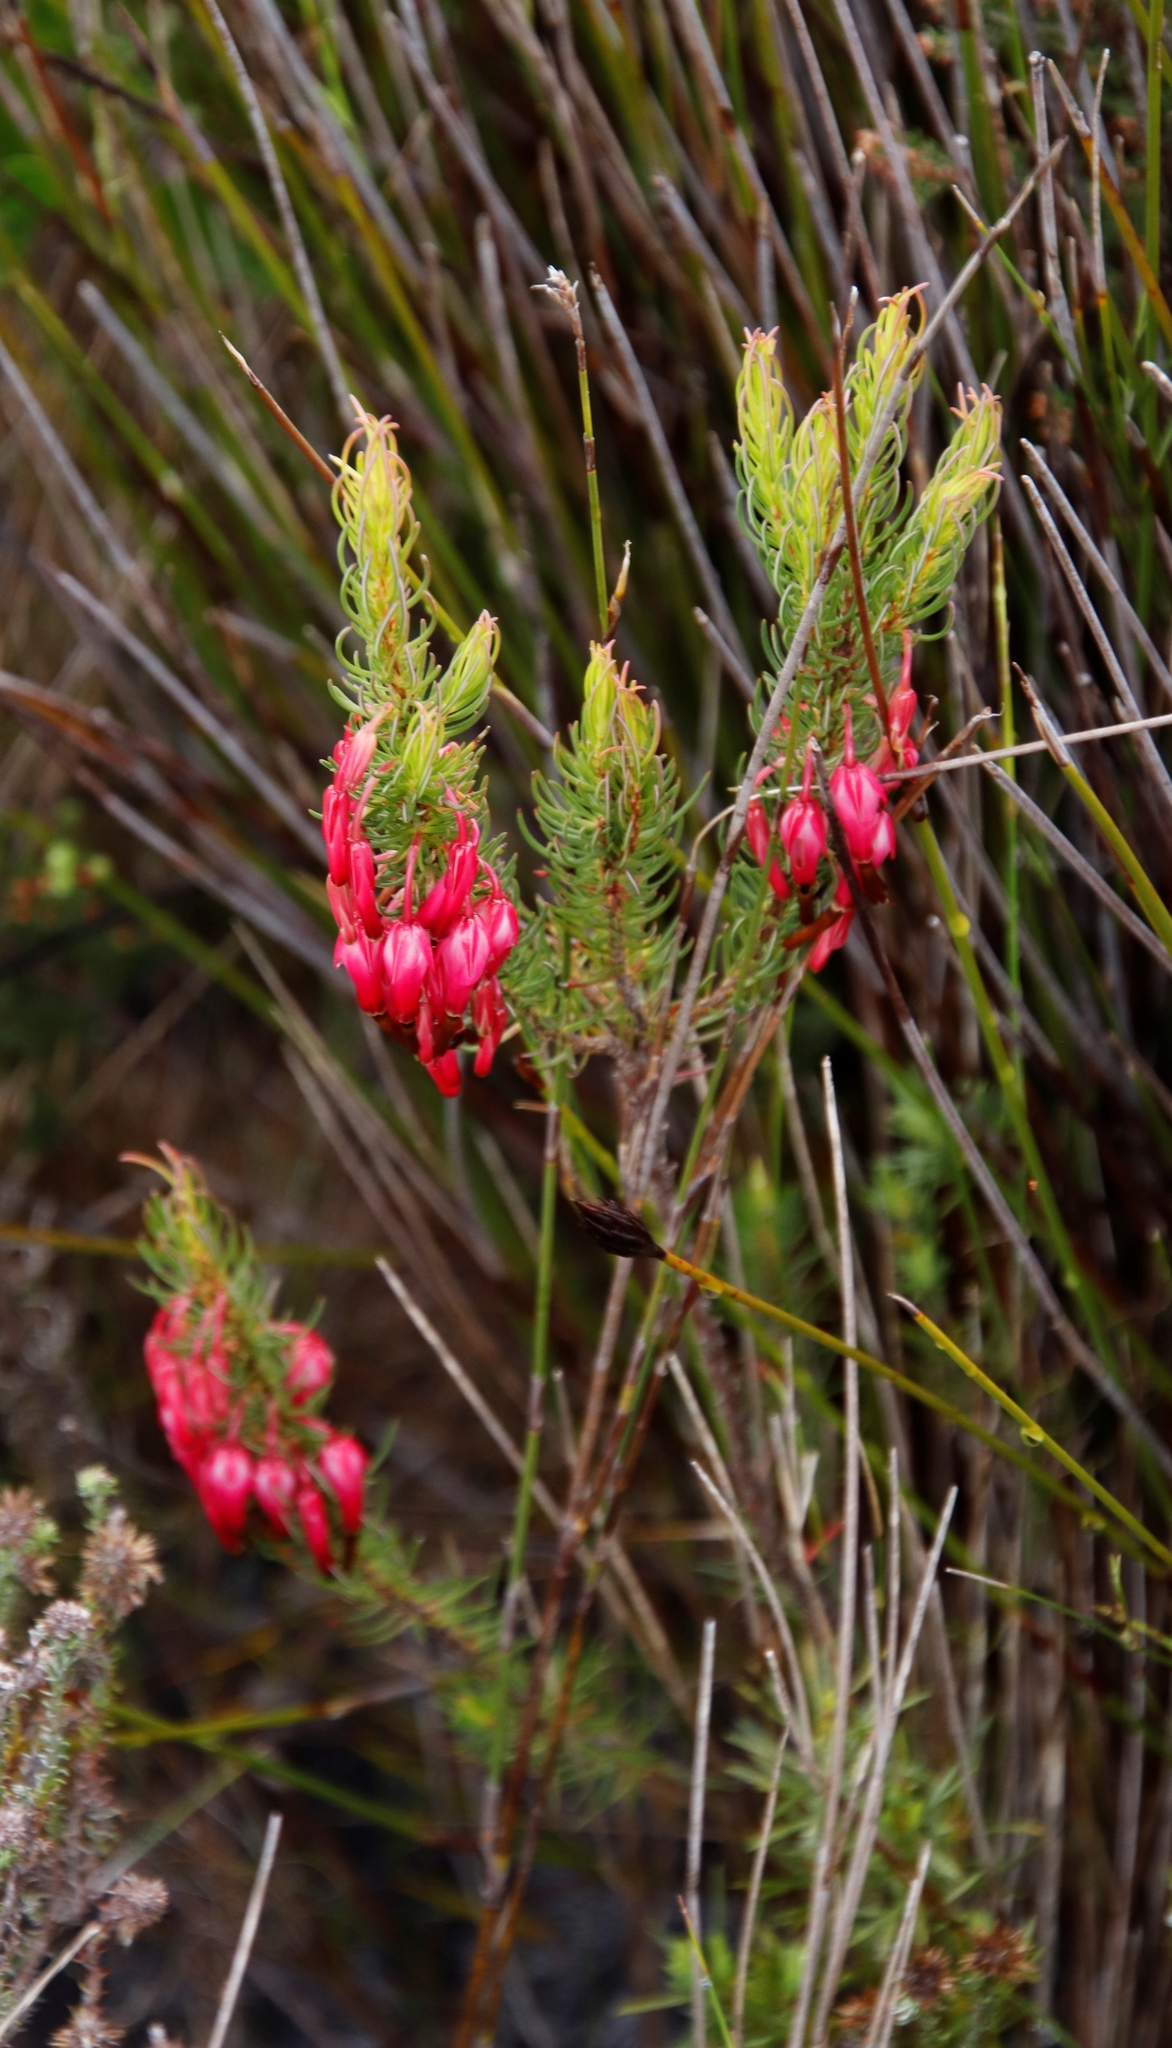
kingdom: Plantae
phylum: Tracheophyta
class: Magnoliopsida
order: Ericales
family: Ericaceae
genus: Erica
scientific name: Erica plukenetii
